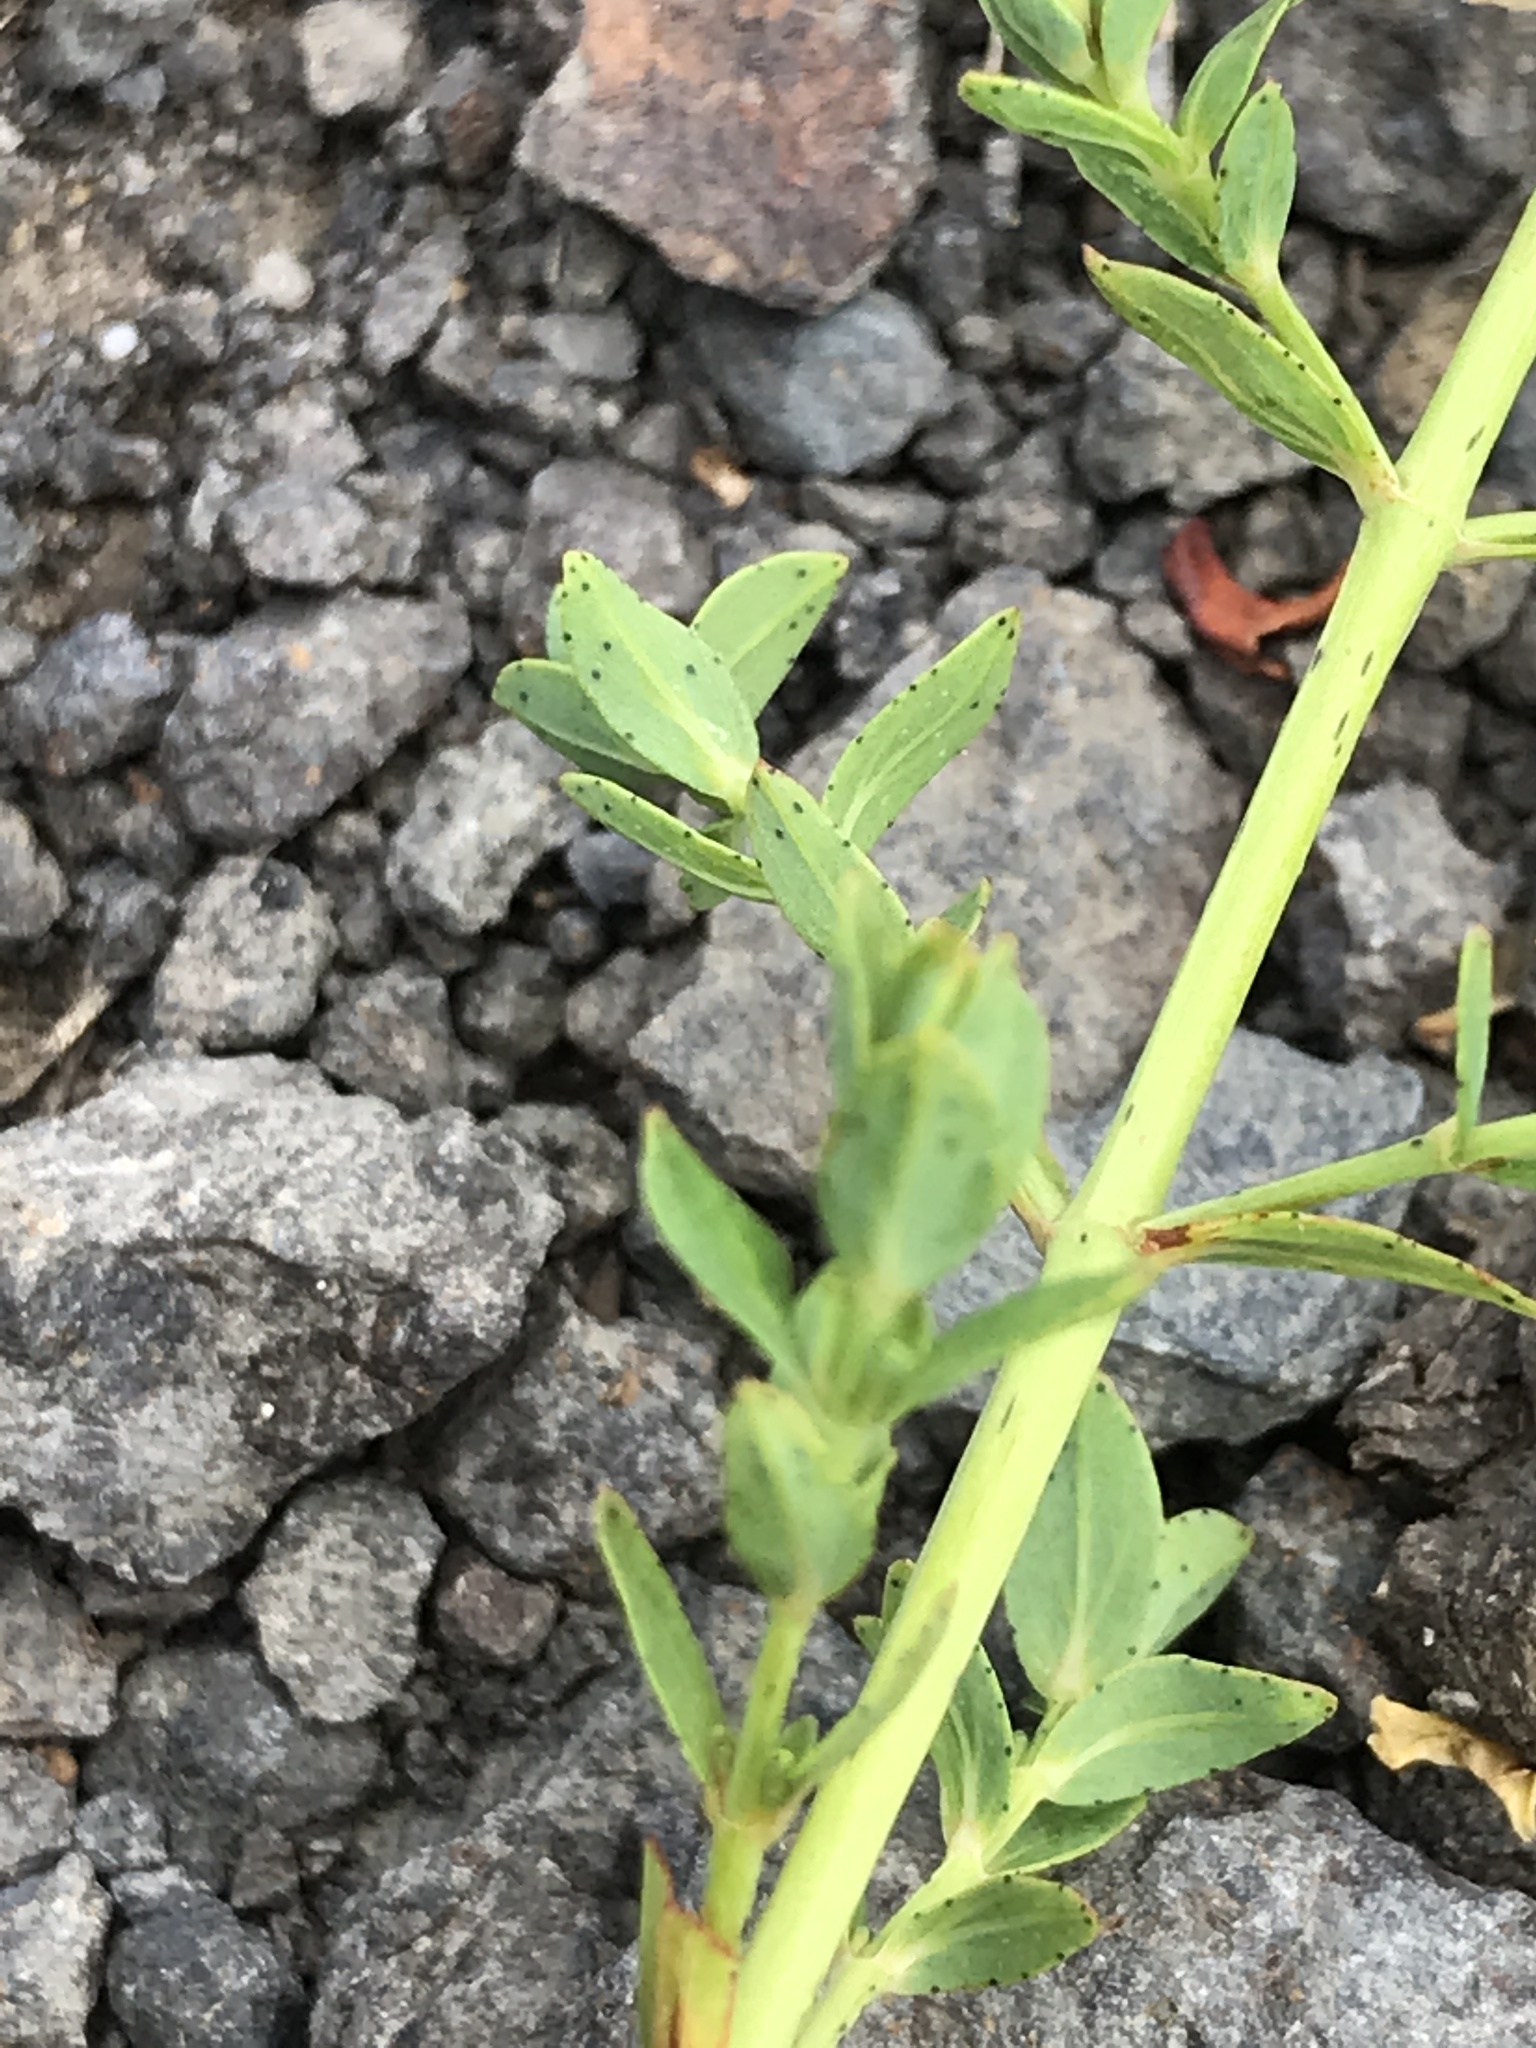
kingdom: Plantae
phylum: Tracheophyta
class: Magnoliopsida
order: Malpighiales
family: Hypericaceae
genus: Hypericum
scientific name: Hypericum perforatum
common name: Common st. johnswort
